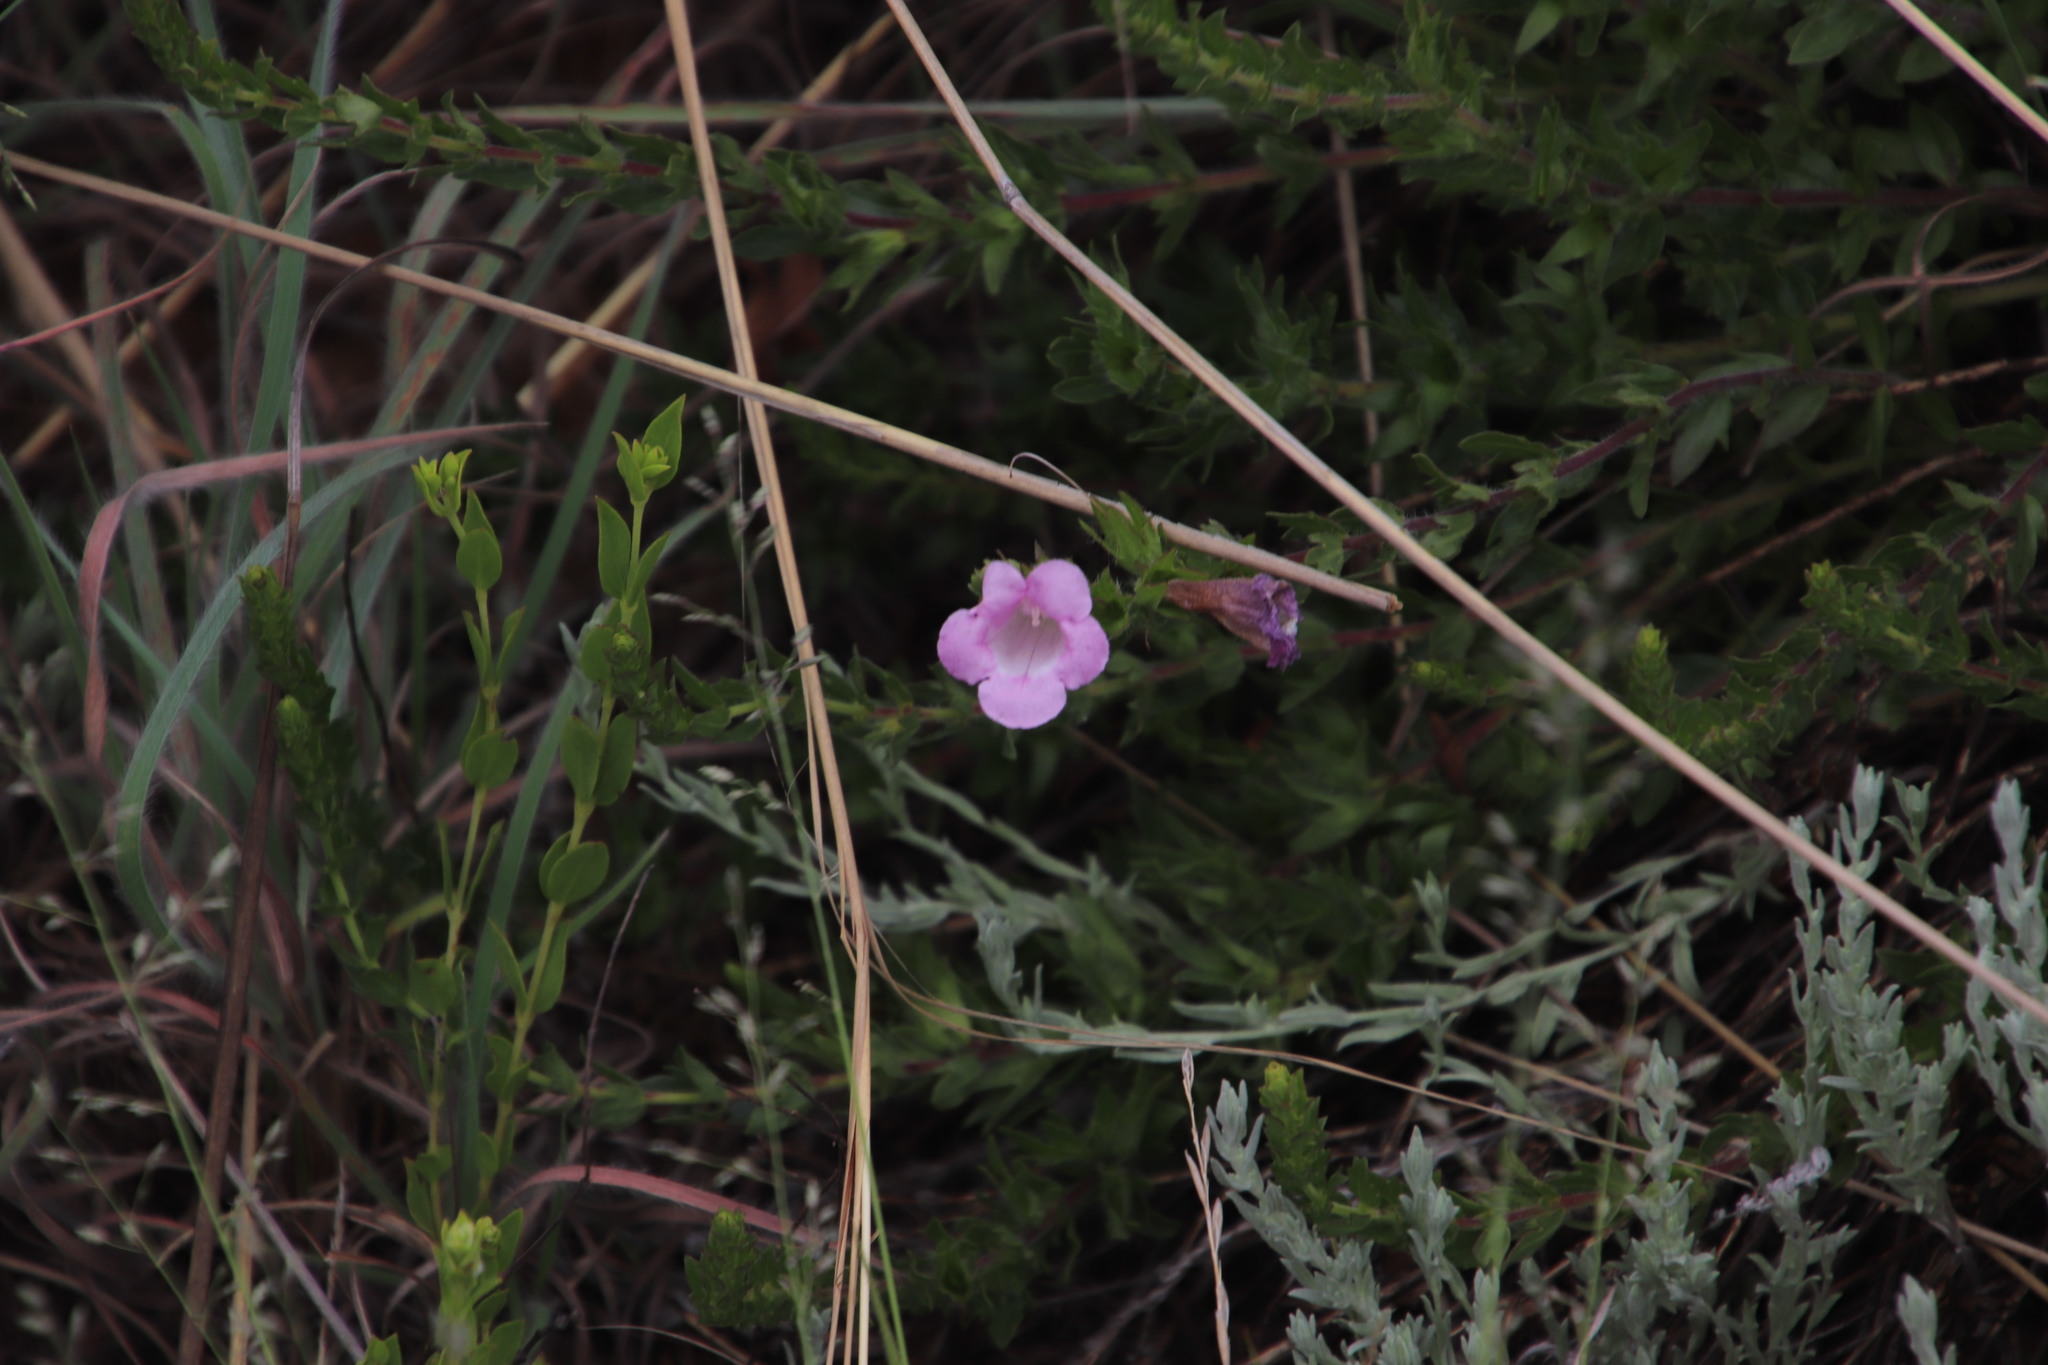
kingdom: Plantae
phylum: Tracheophyta
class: Magnoliopsida
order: Lamiales
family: Orobanchaceae
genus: Graderia
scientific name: Graderia subintegra
